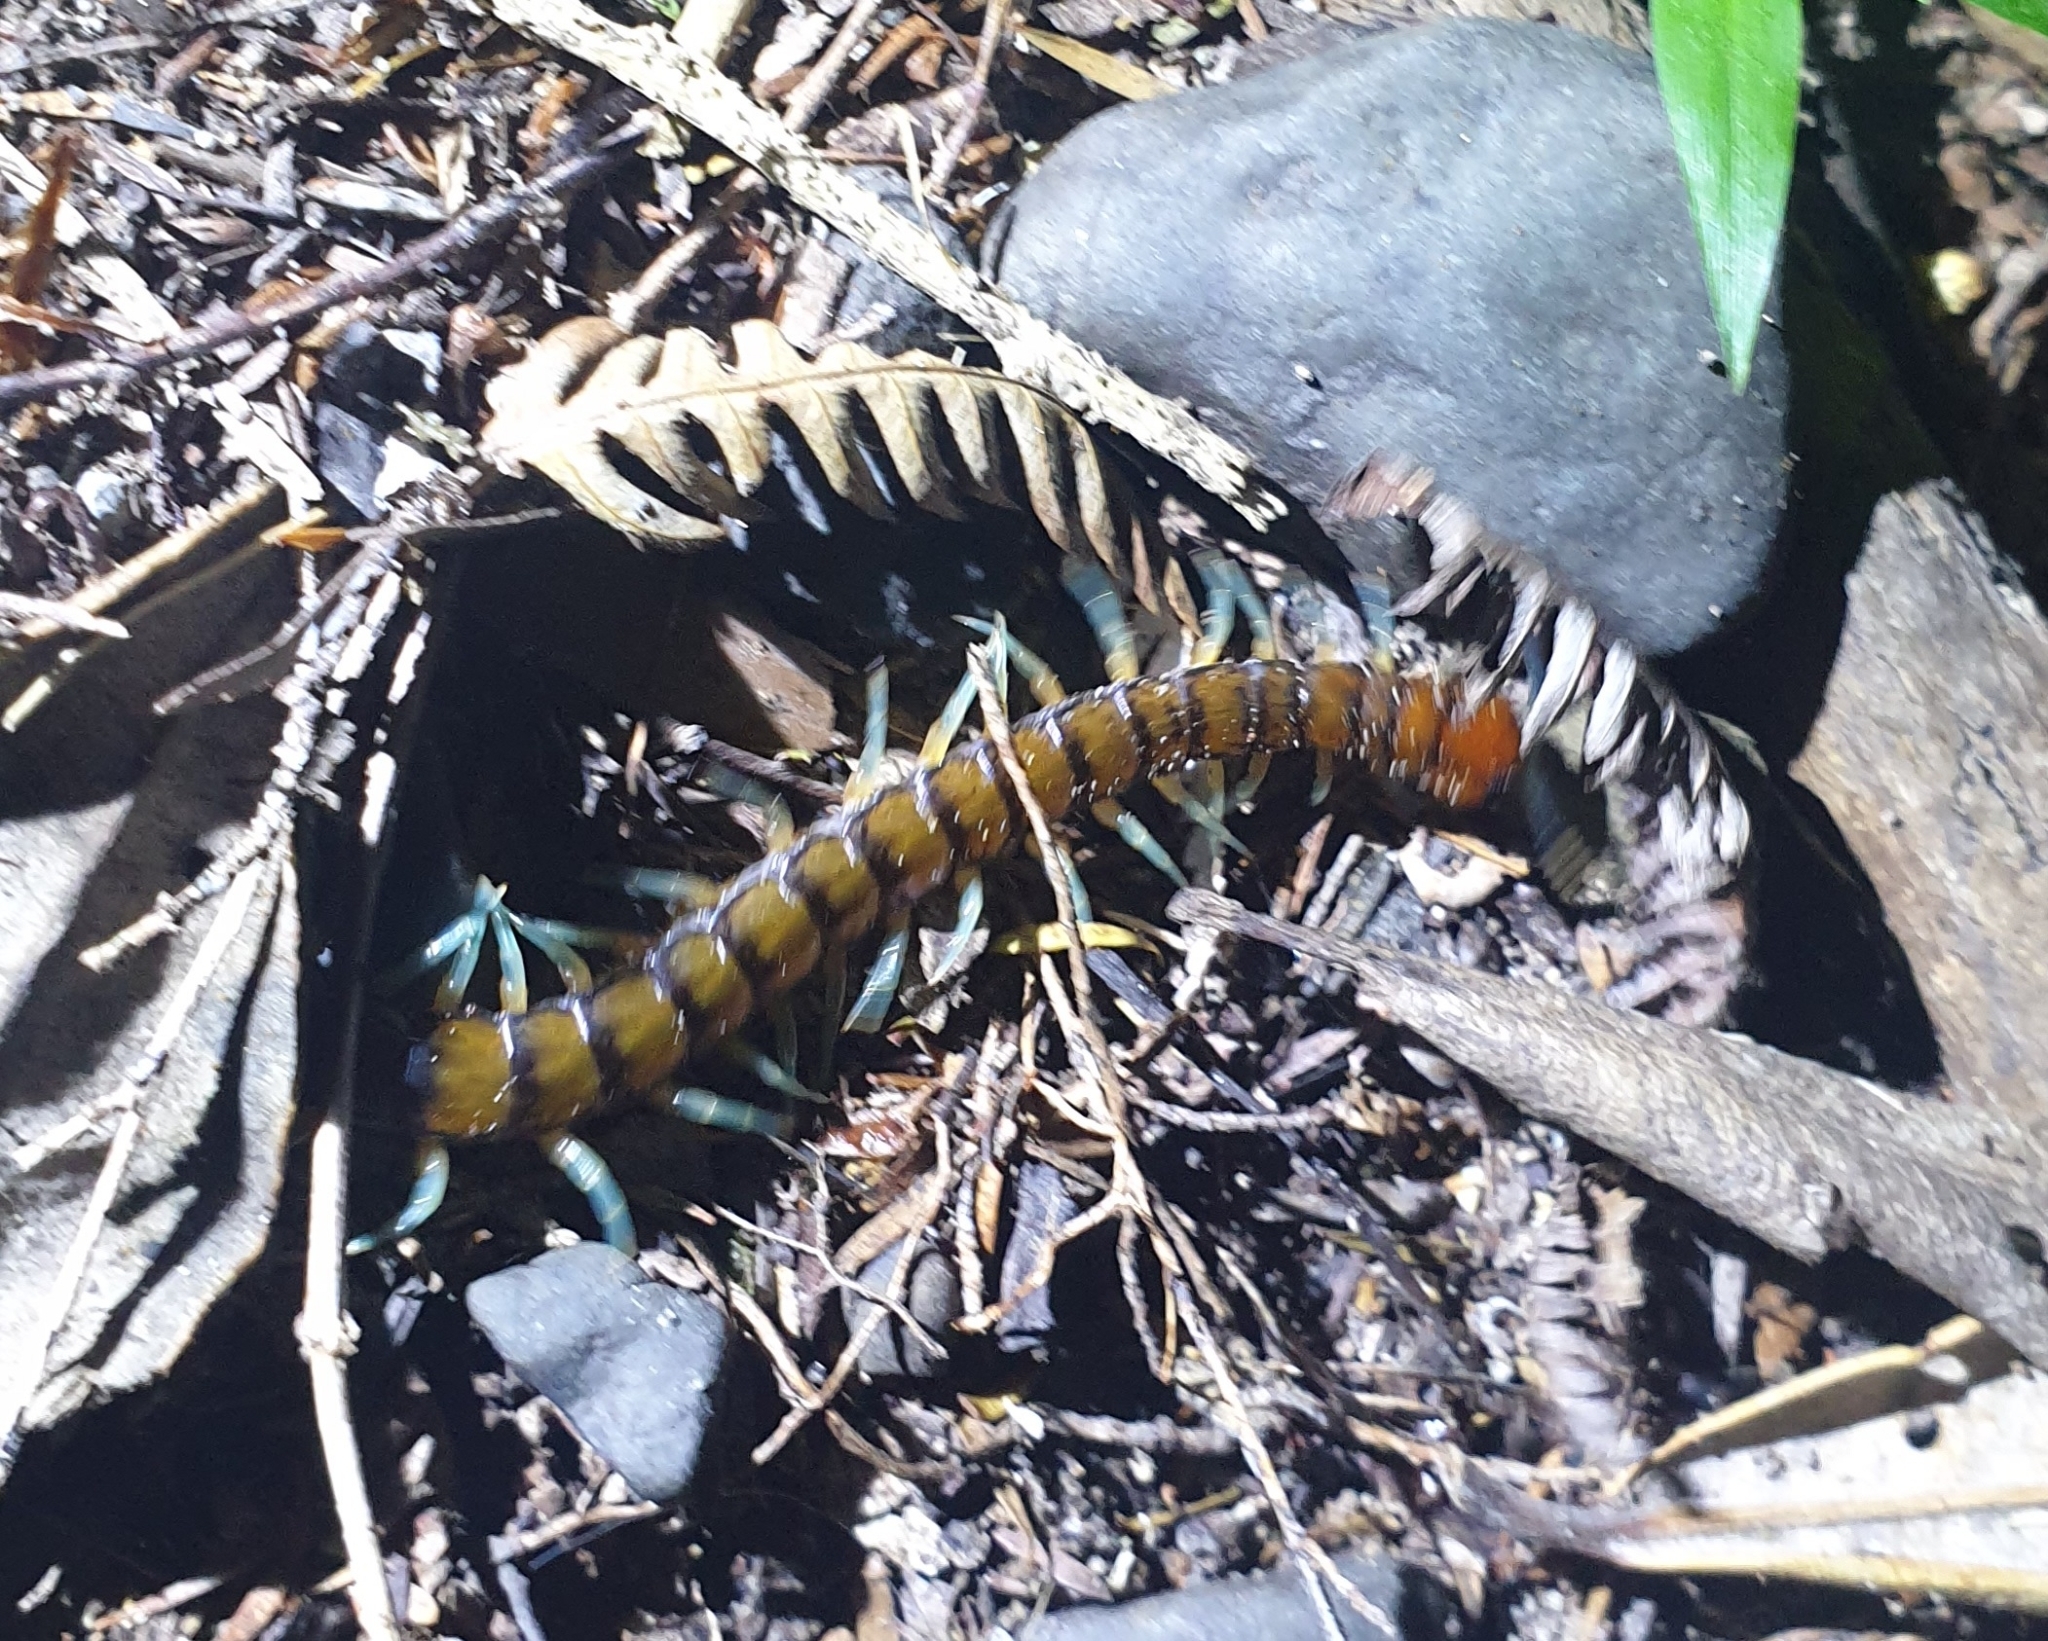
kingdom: Animalia
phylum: Arthropoda
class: Chilopoda
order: Scolopendromorpha
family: Scolopendridae
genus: Cormocephalus
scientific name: Cormocephalus rubriceps
